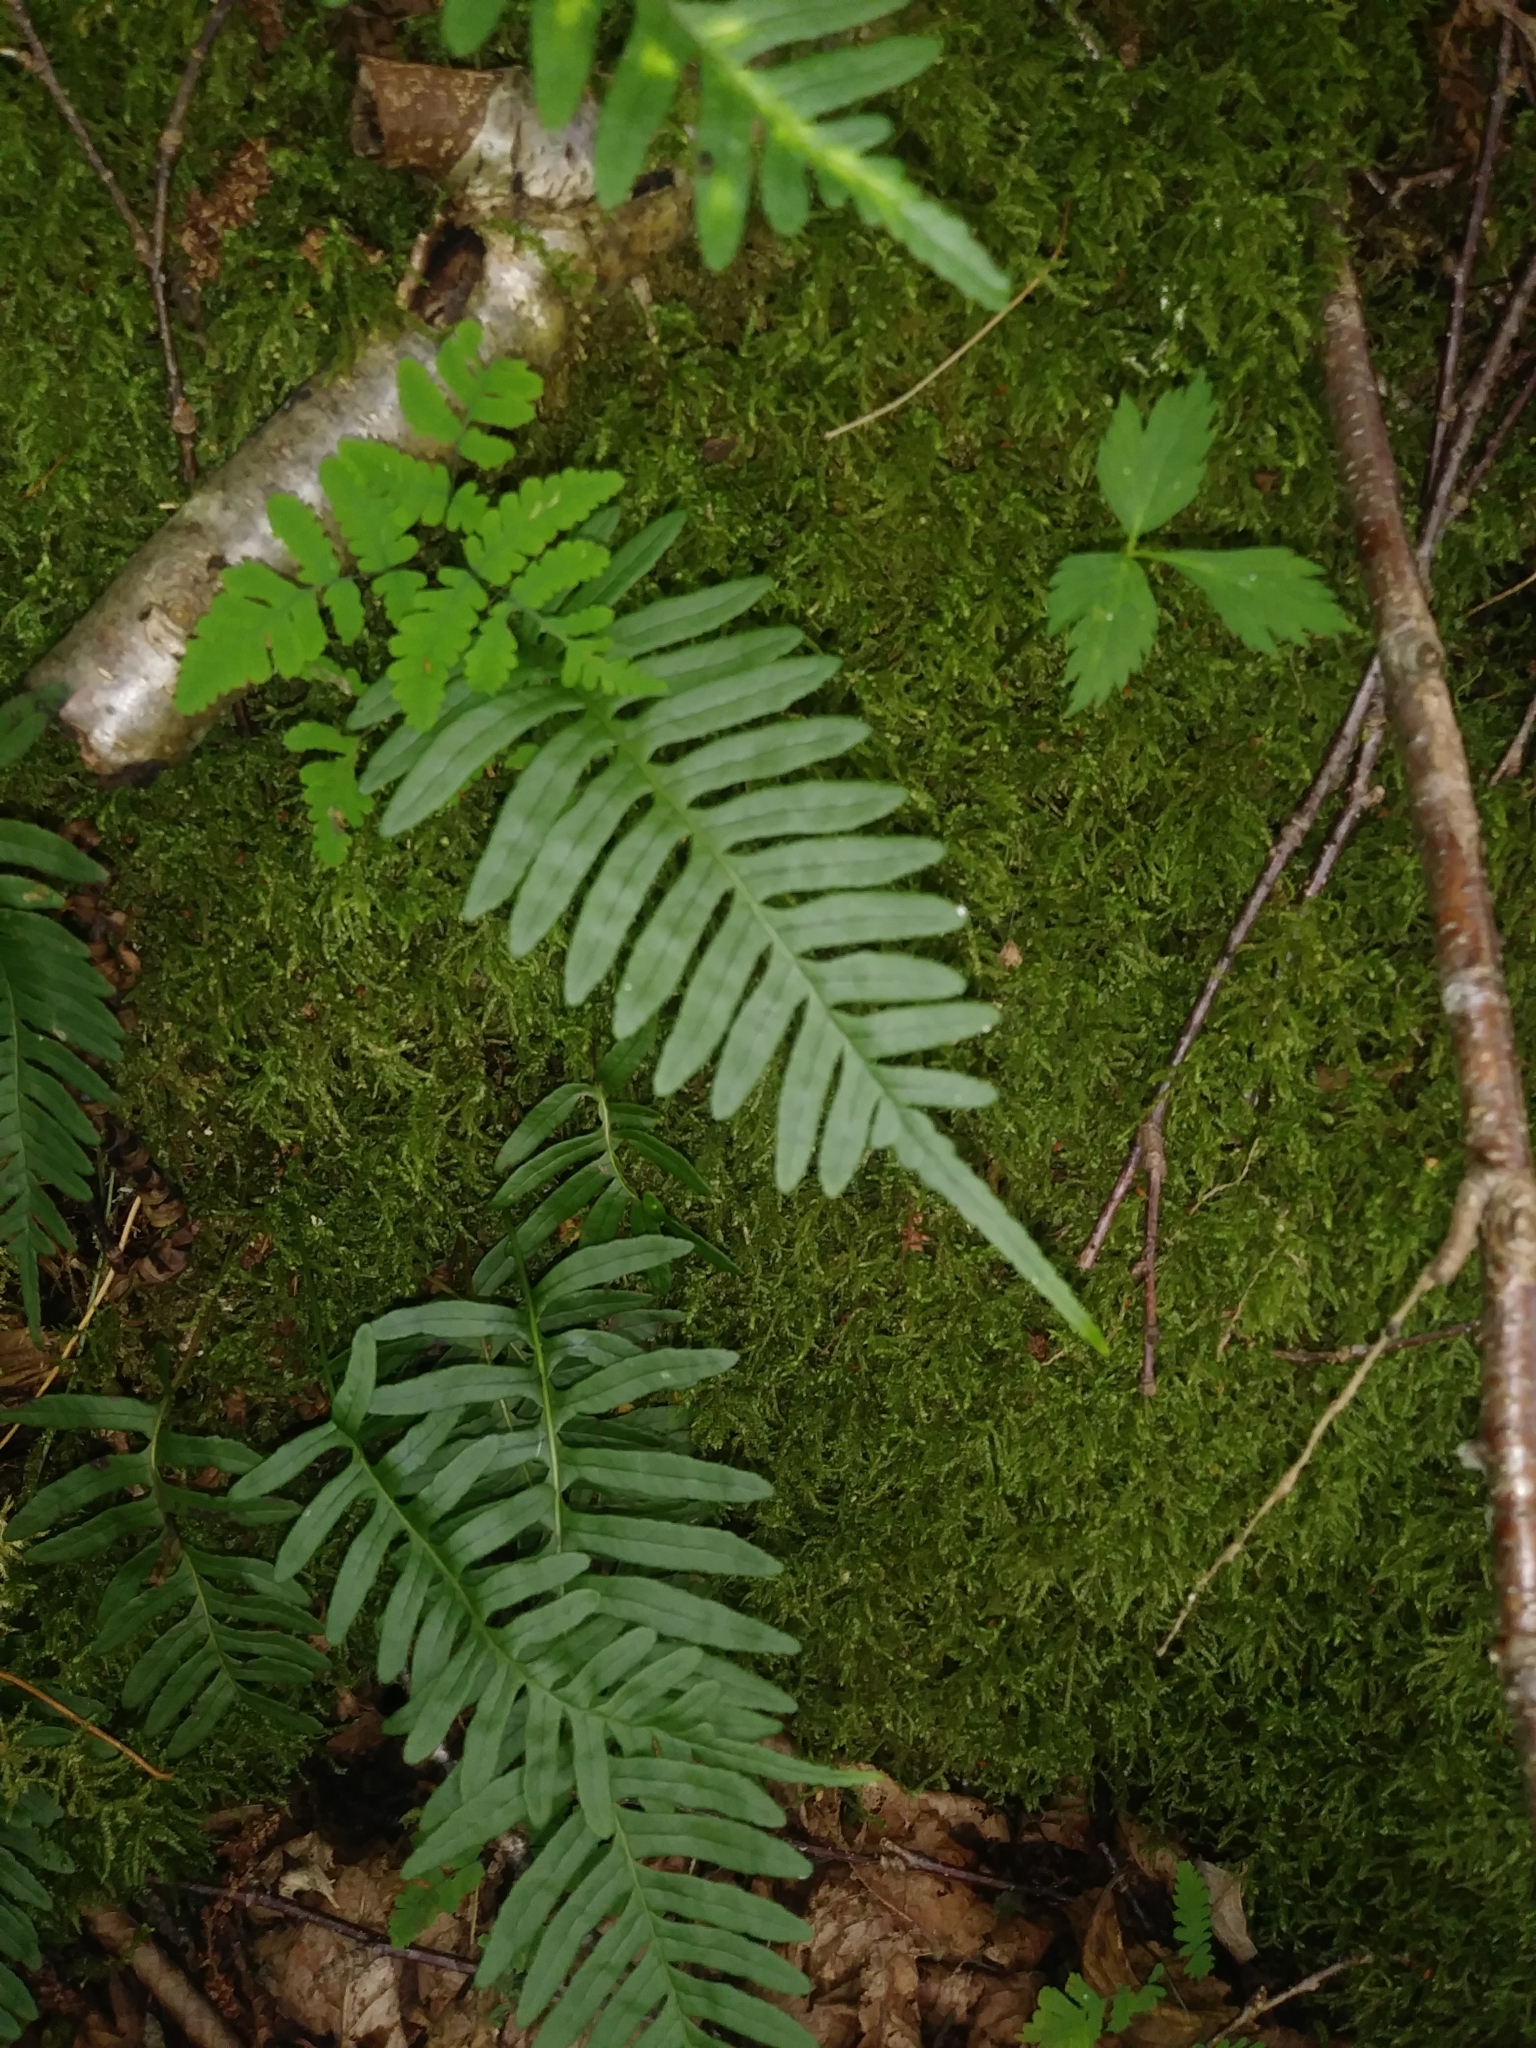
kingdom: Plantae
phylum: Tracheophyta
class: Polypodiopsida
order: Polypodiales
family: Polypodiaceae
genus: Polypodium
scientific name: Polypodium appalachianum
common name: Appalachian polypody
